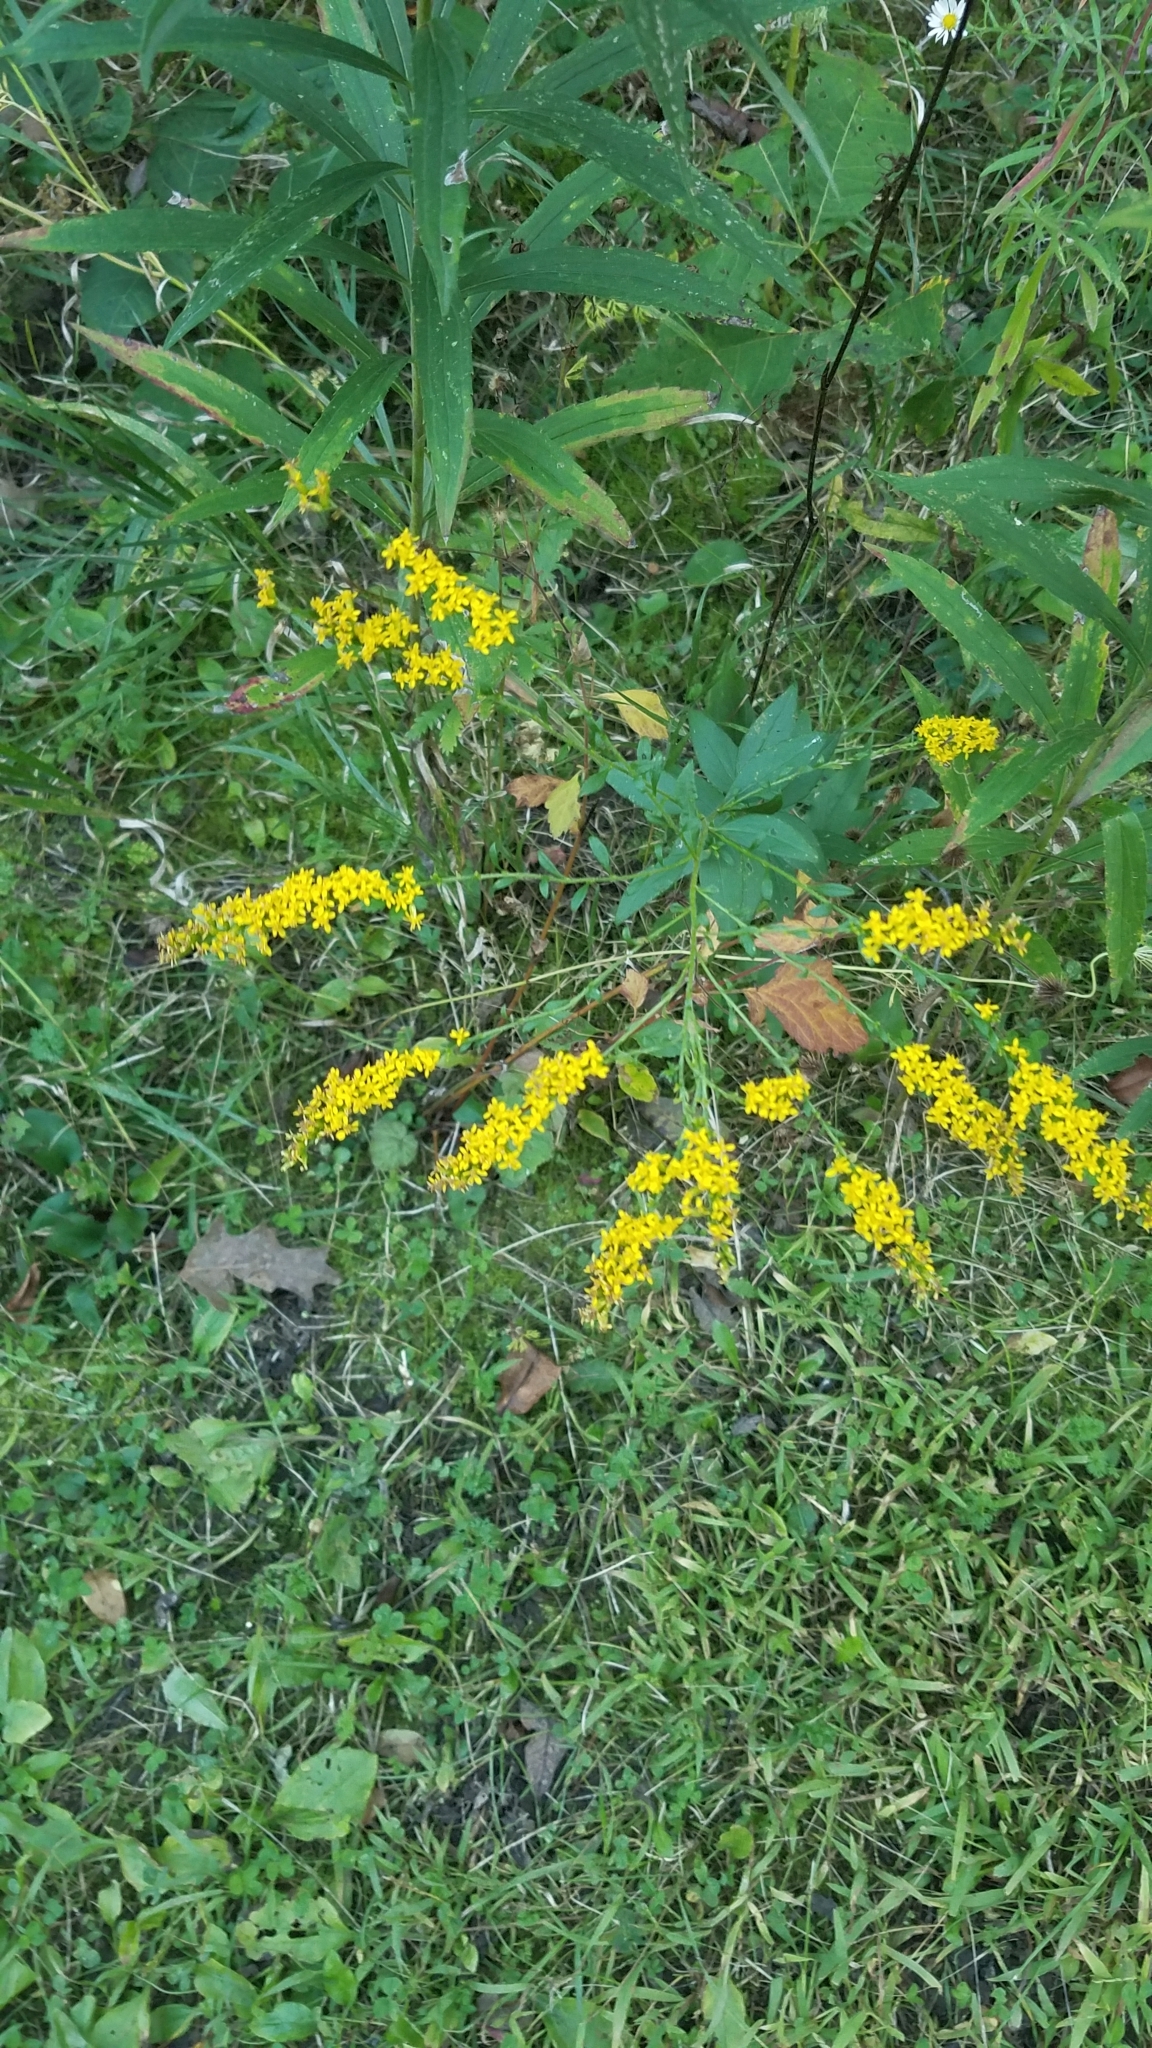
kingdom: Plantae
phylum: Tracheophyta
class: Magnoliopsida
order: Asterales
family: Asteraceae
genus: Solidago
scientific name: Solidago ulmifolia
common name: Elm-leaf goldenrod
